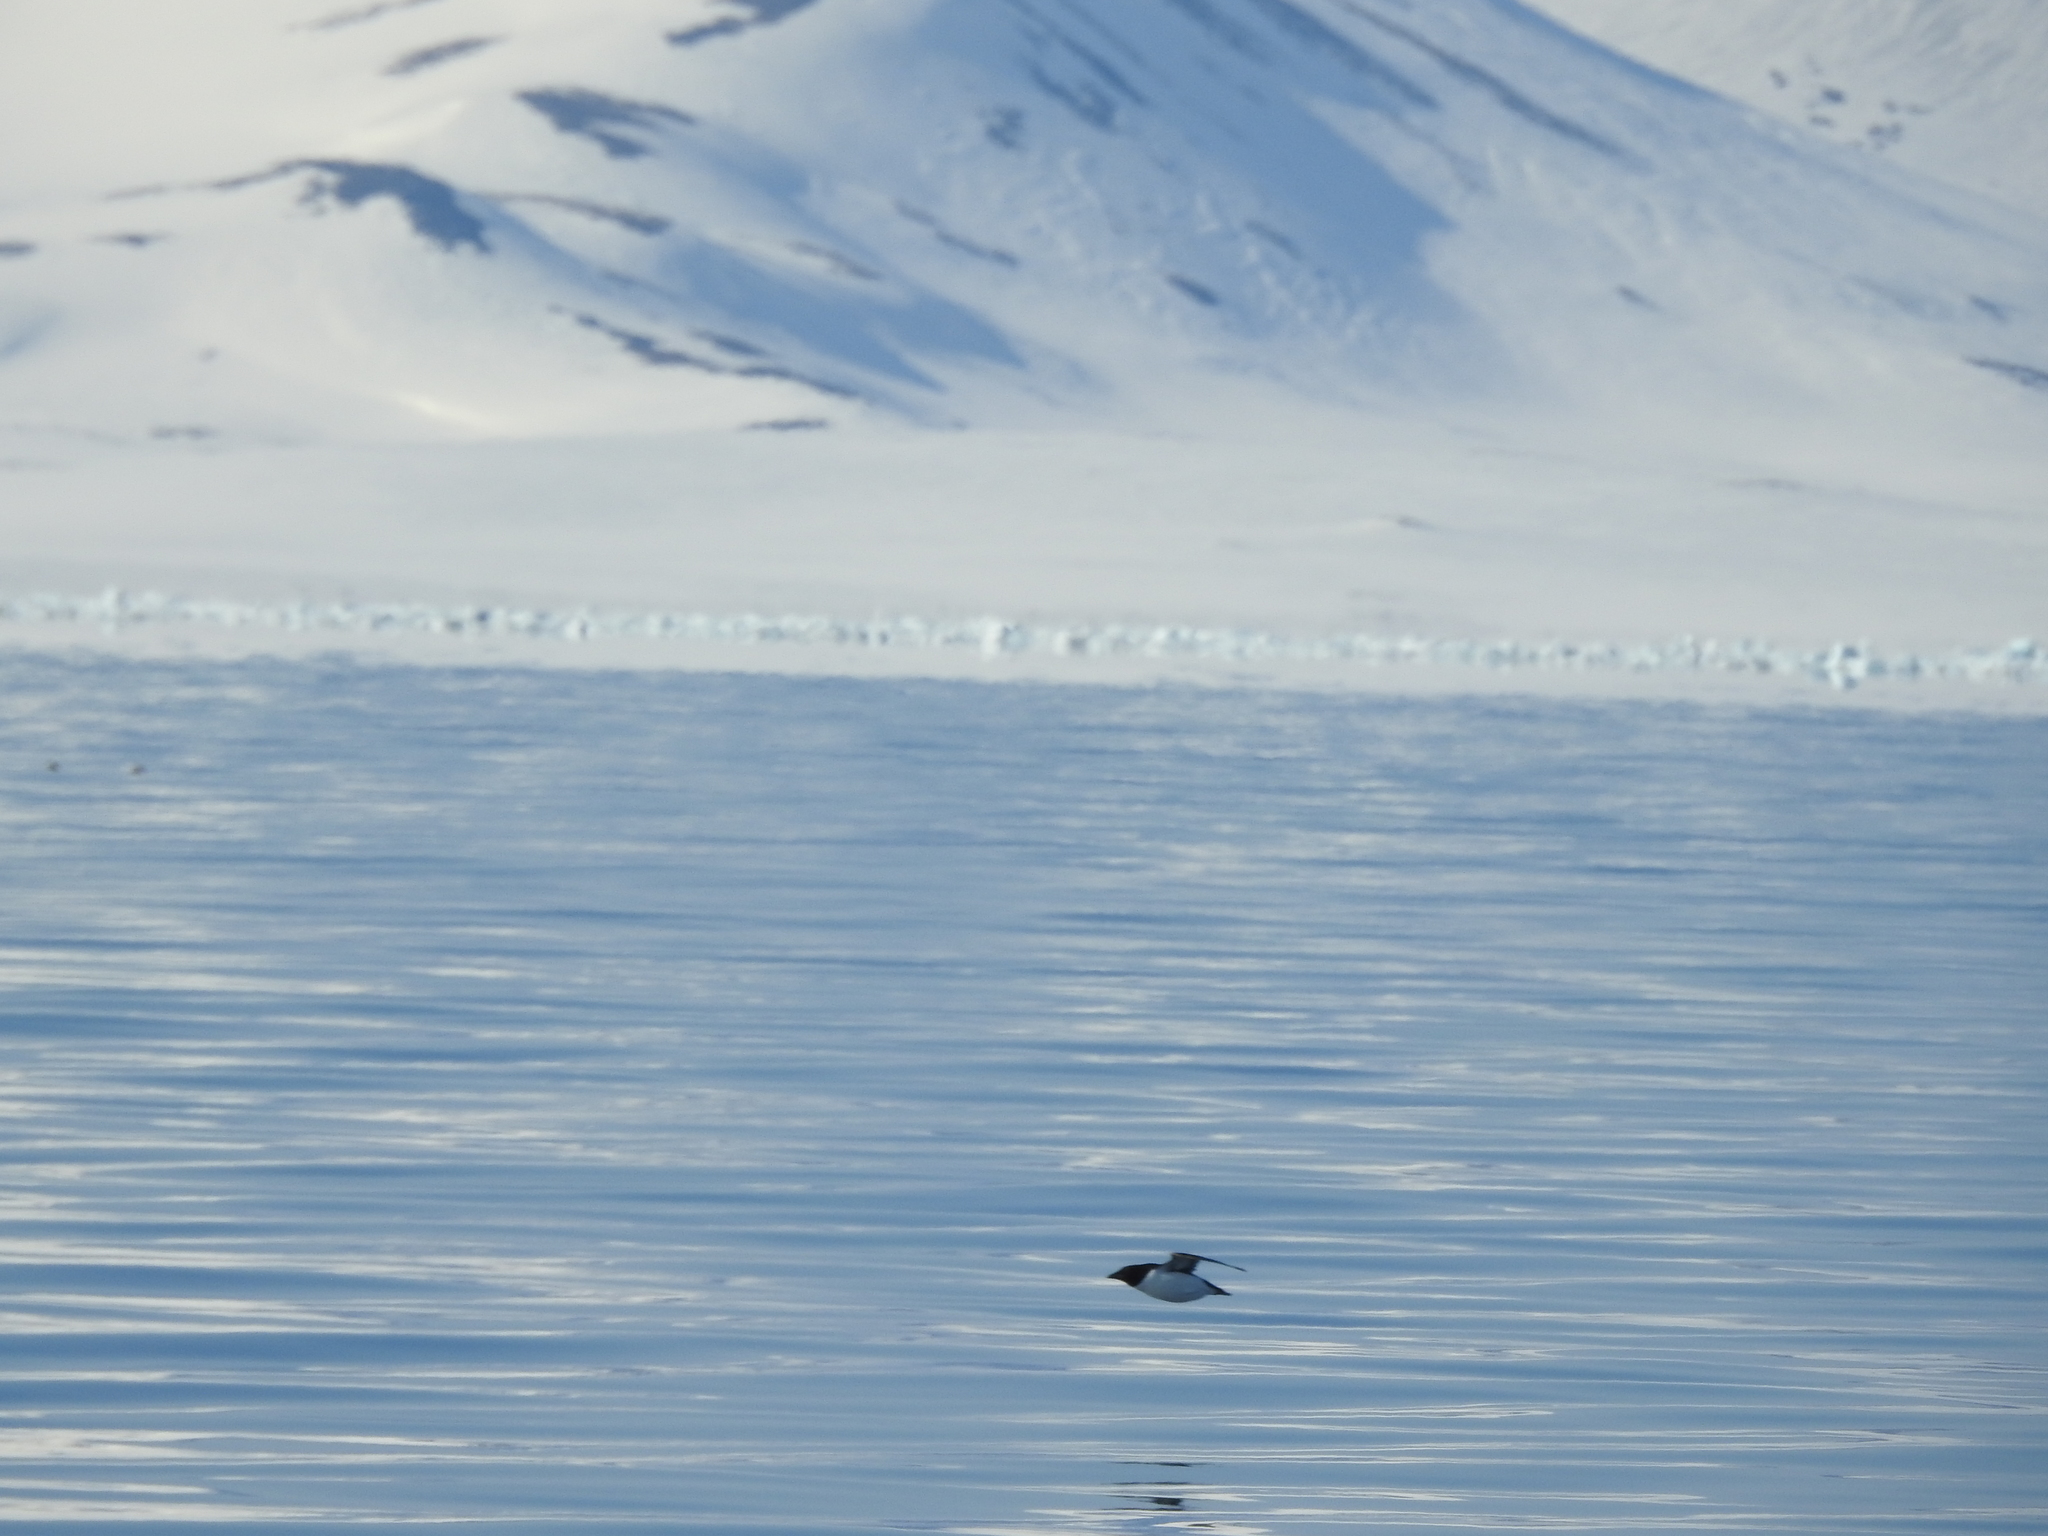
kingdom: Animalia
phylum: Chordata
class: Aves
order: Charadriiformes
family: Alcidae
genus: Uria
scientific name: Uria lomvia
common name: Thick-billed murre
